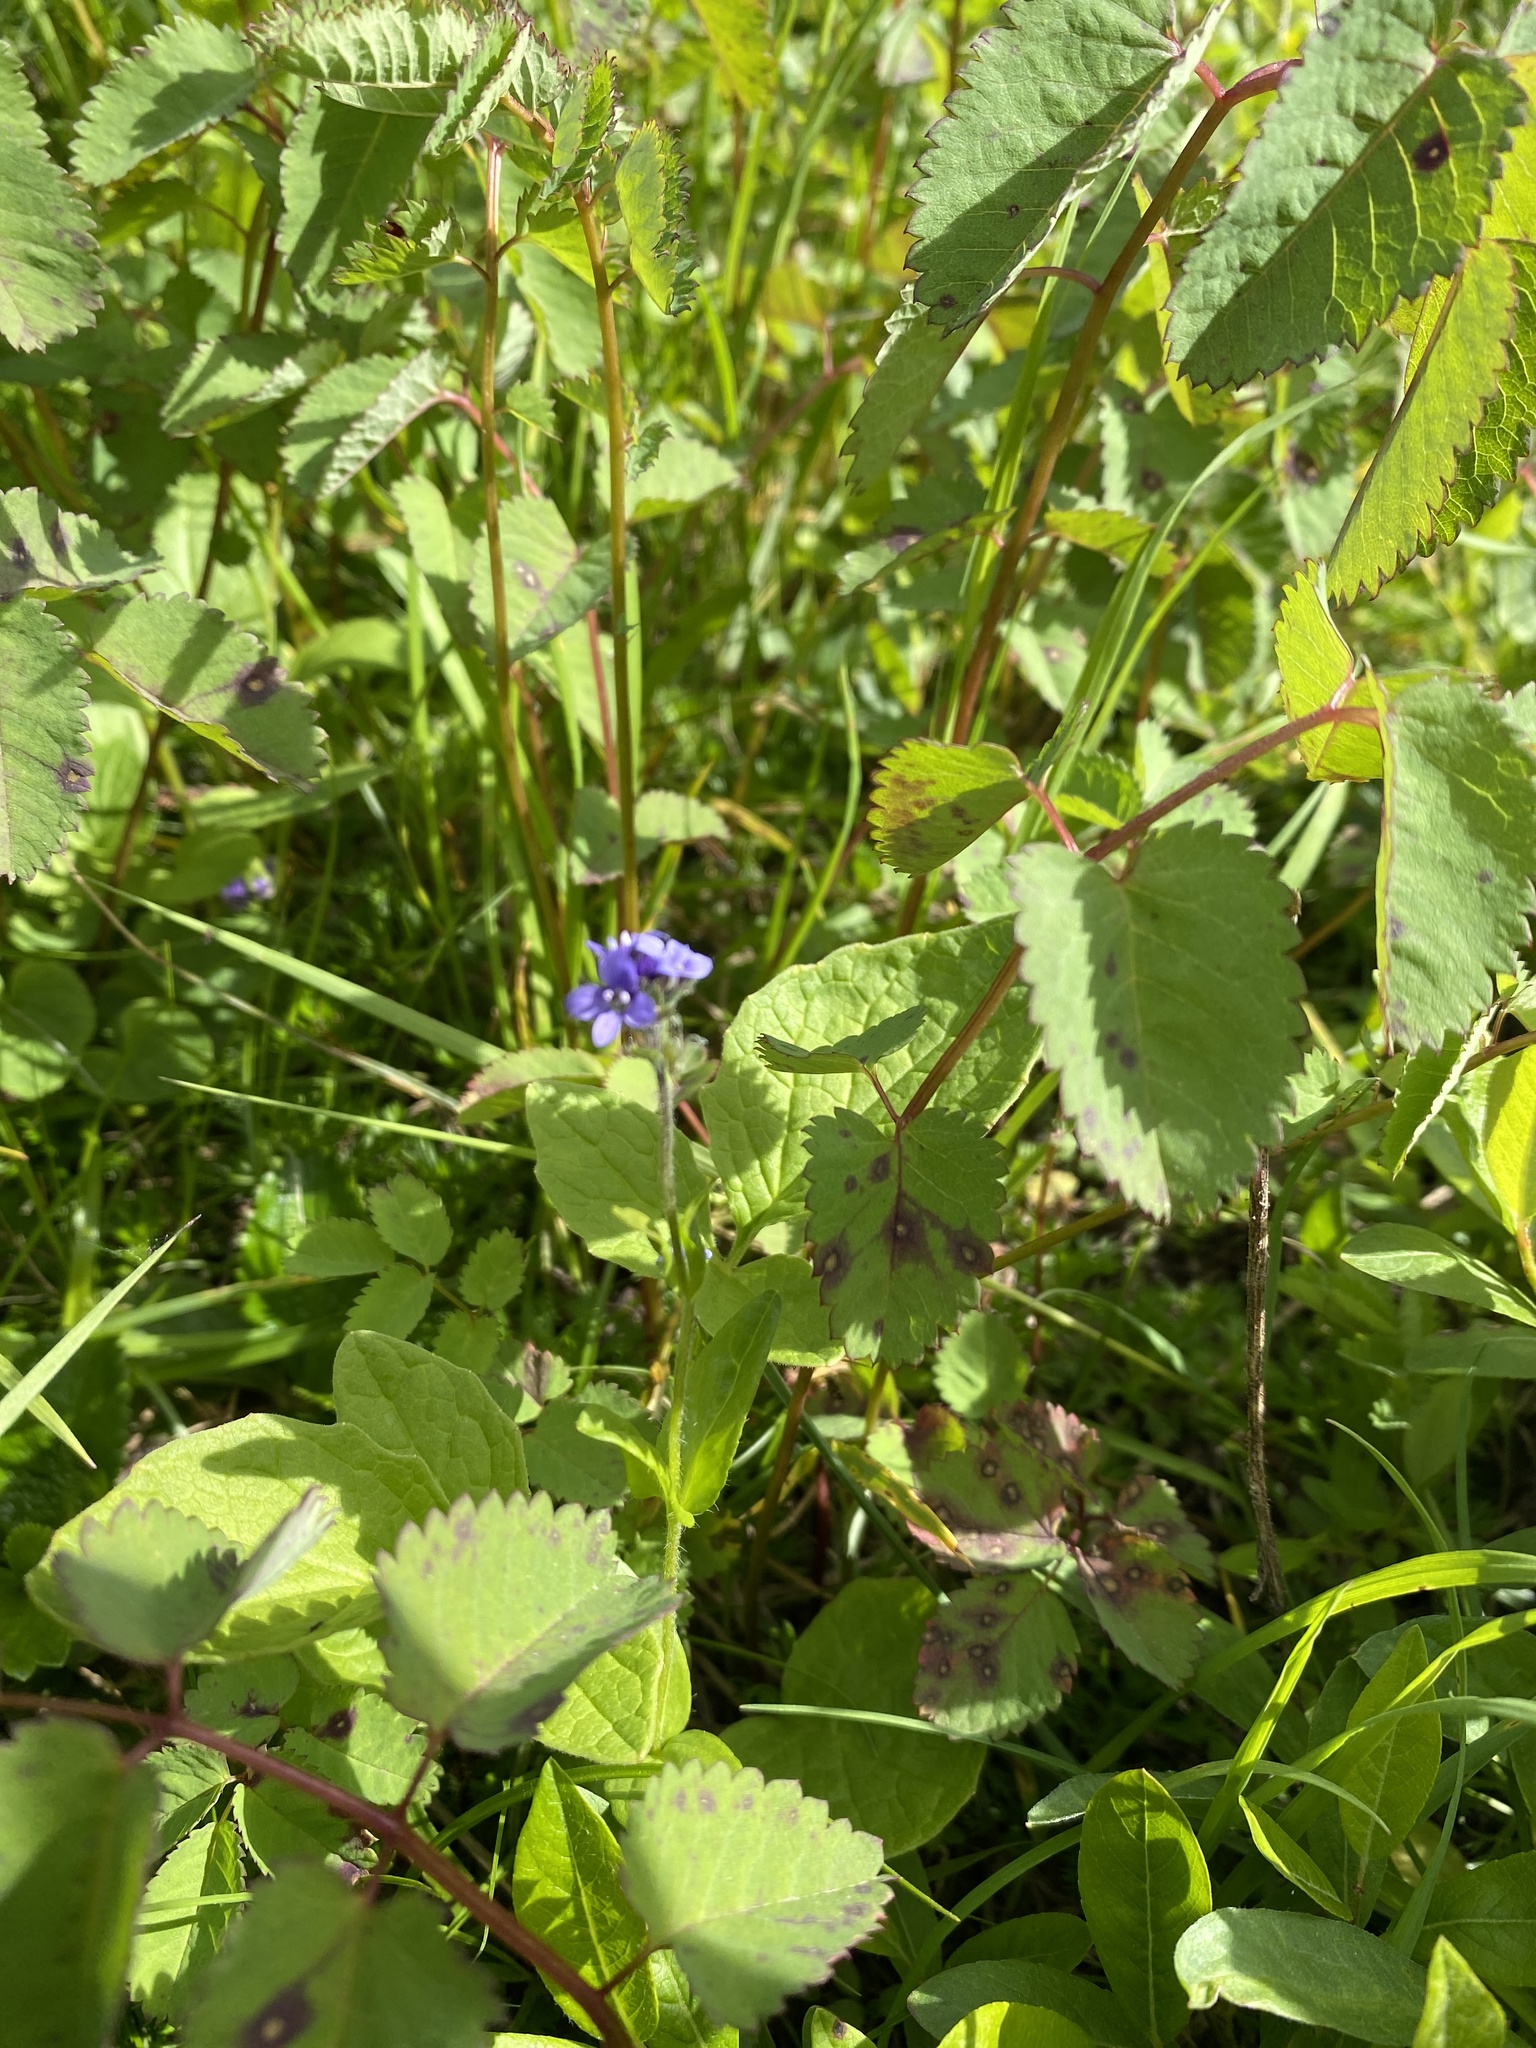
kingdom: Plantae
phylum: Tracheophyta
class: Magnoliopsida
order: Lamiales
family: Plantaginaceae
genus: Veronica
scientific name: Veronica wormskjoldii
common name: American alpine speedwell
